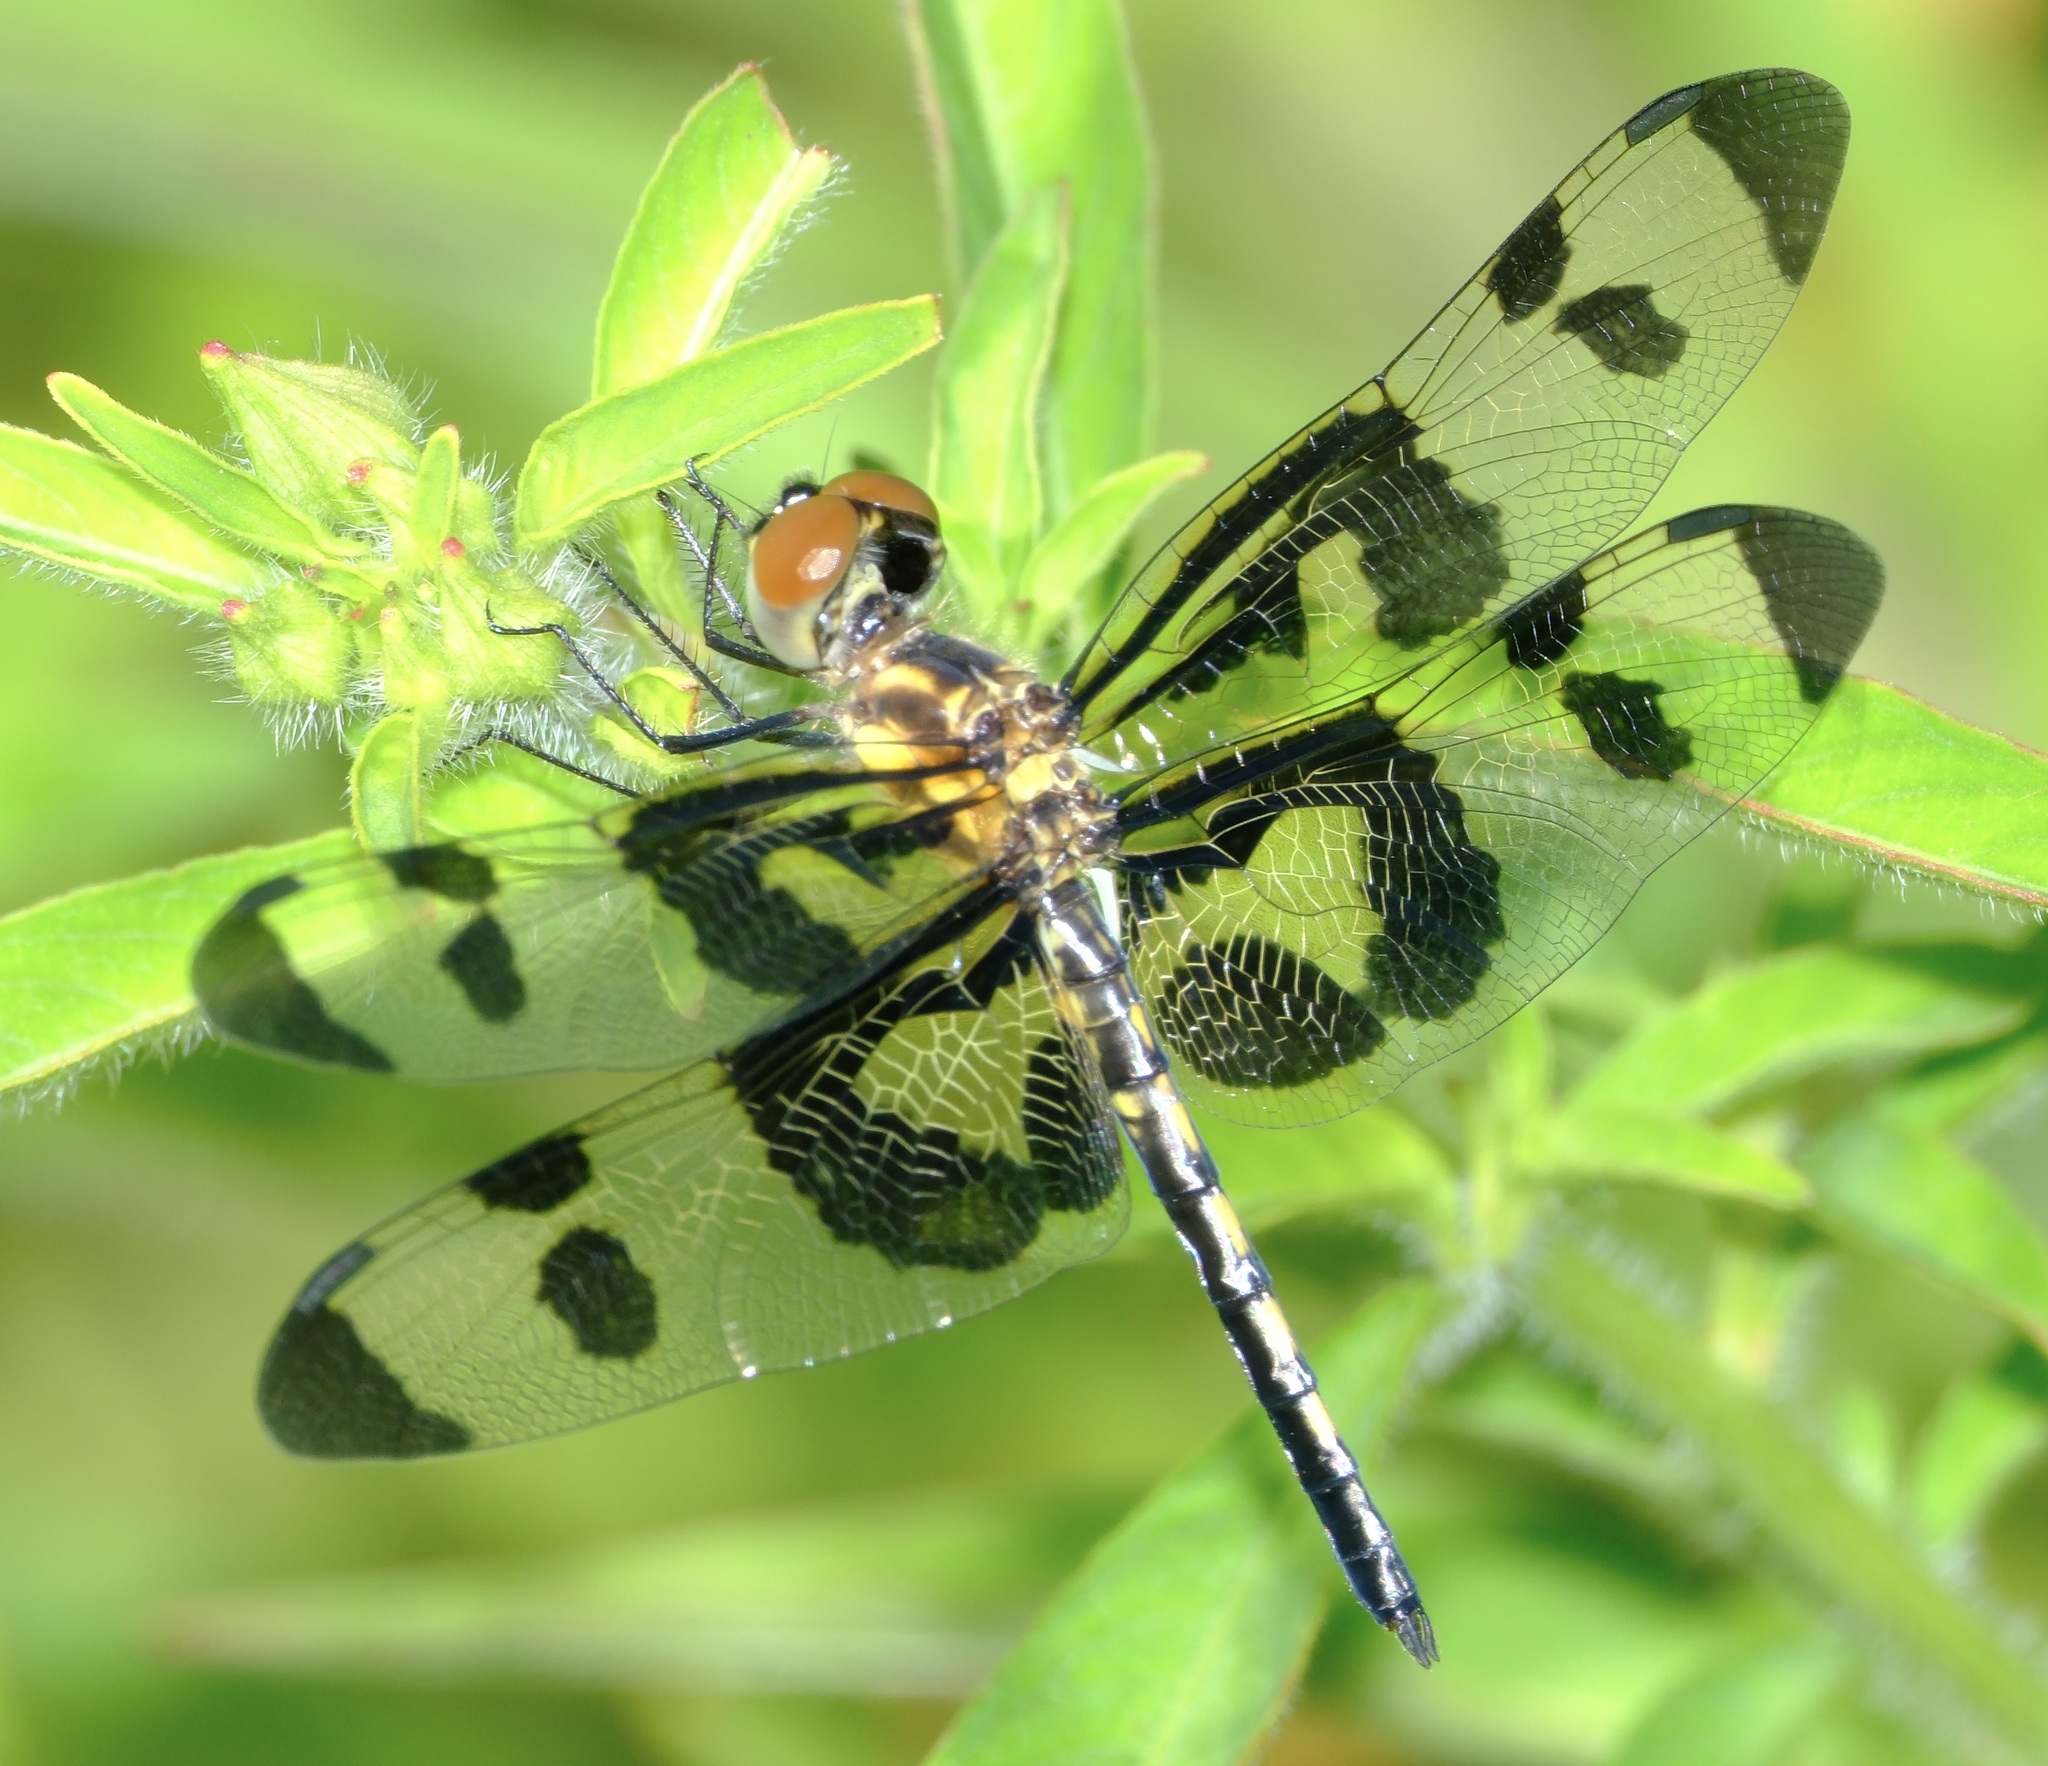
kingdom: Animalia
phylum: Arthropoda
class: Insecta
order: Odonata
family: Libellulidae
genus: Celithemis
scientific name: Celithemis fasciata
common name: Banded pennant
